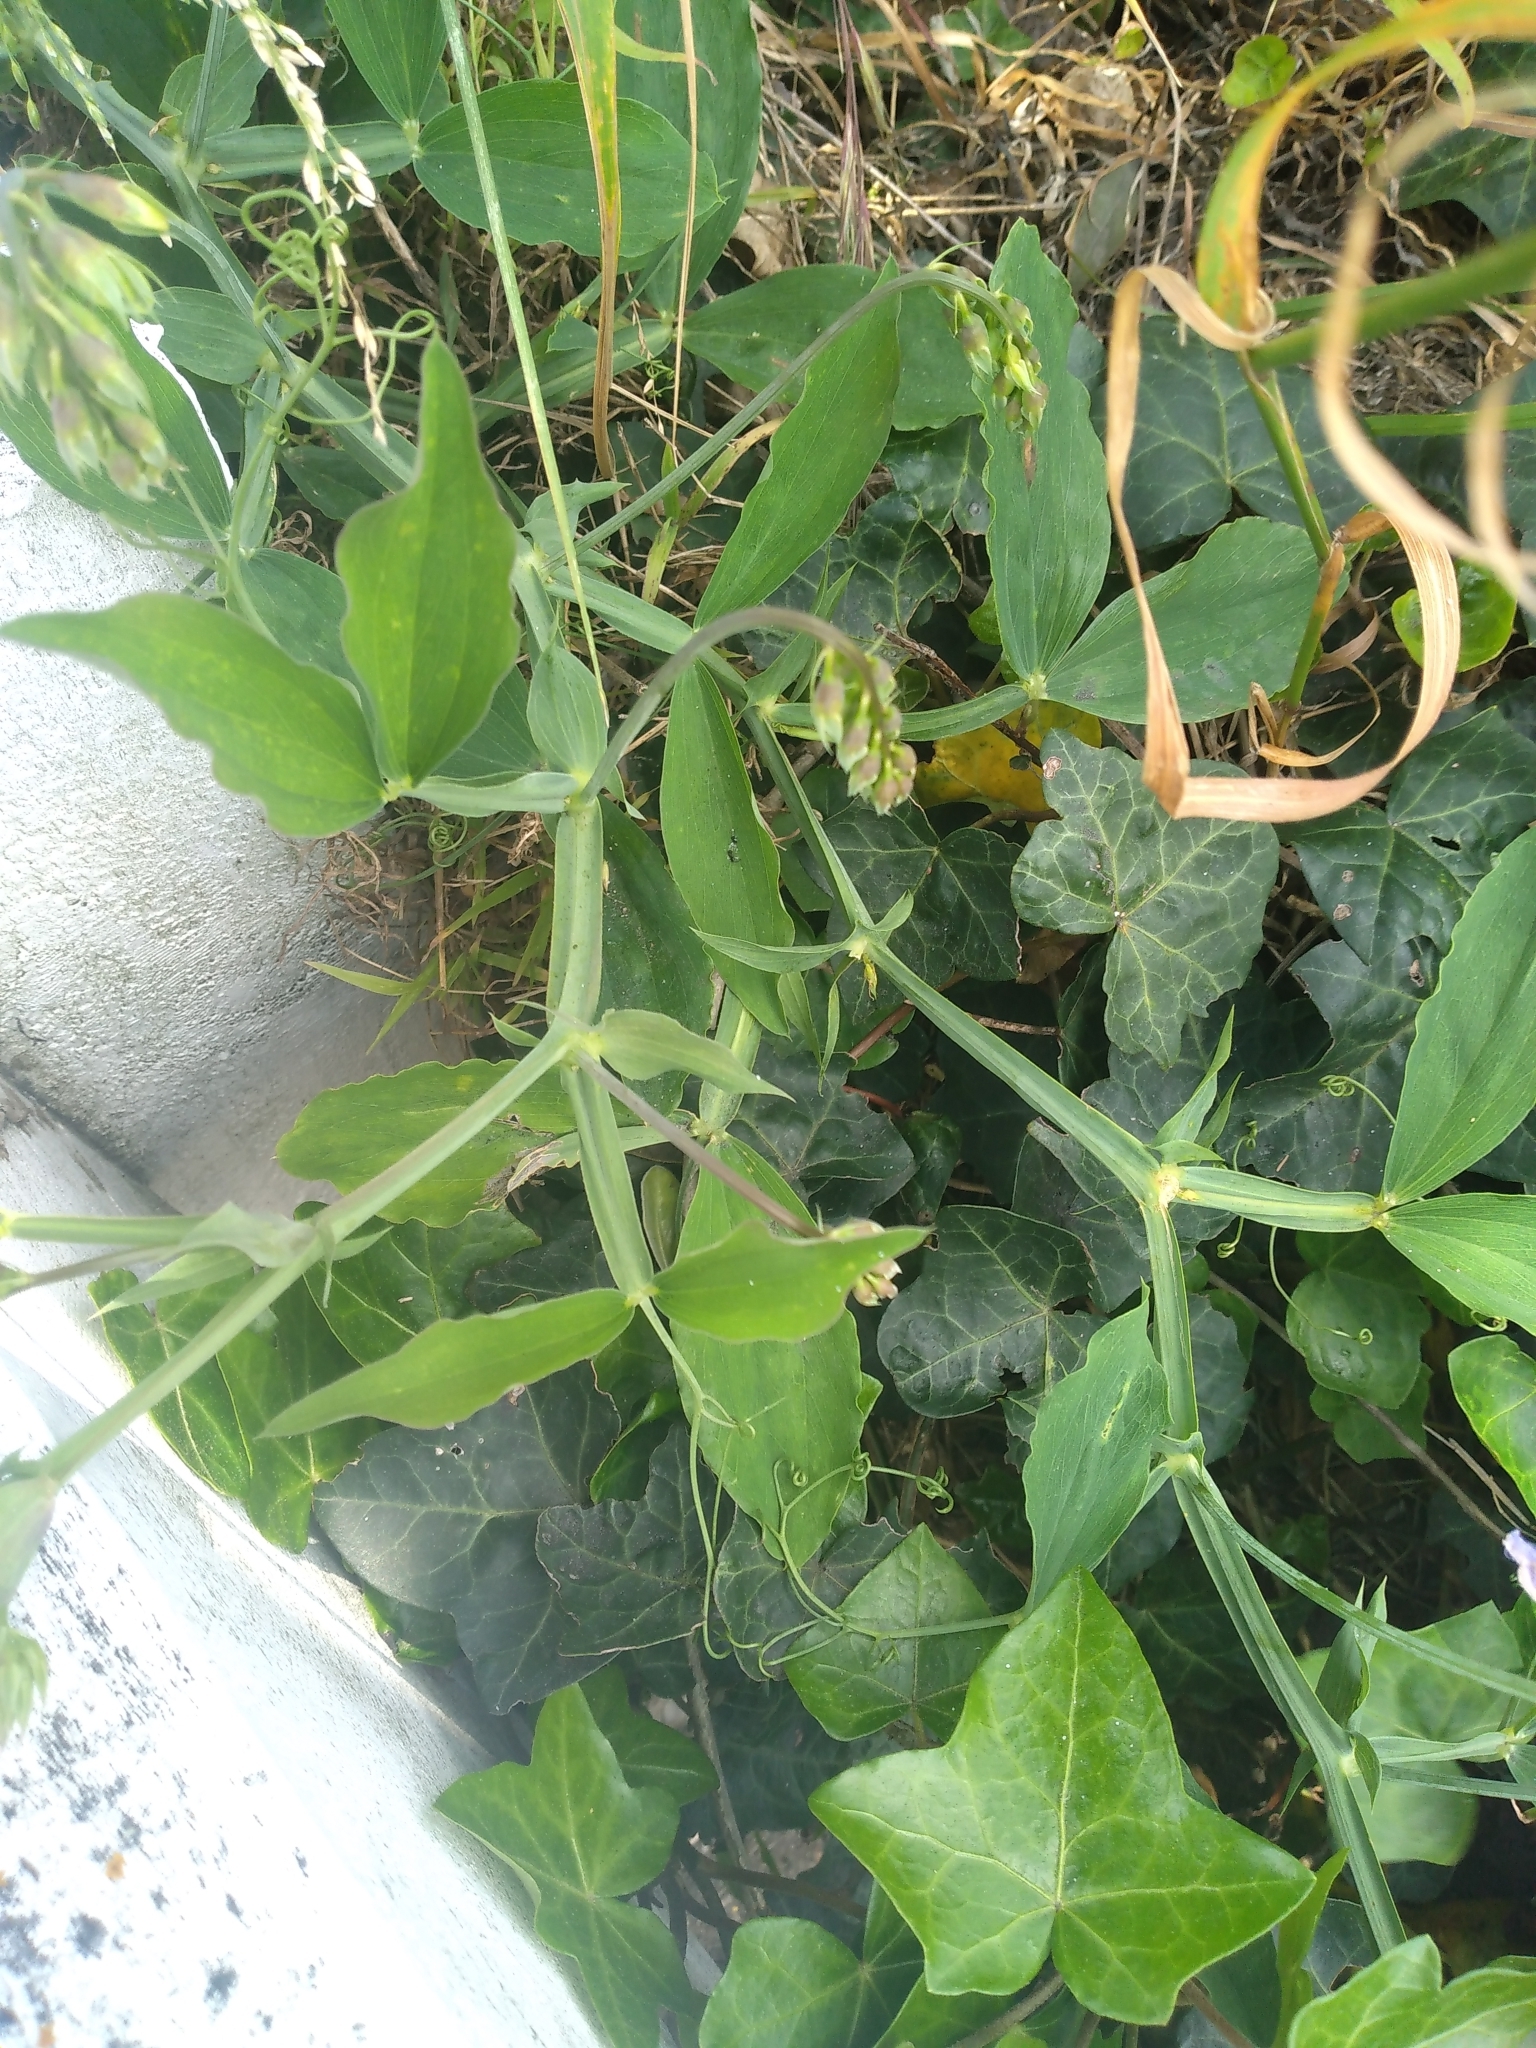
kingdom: Plantae
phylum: Tracheophyta
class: Magnoliopsida
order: Fabales
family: Fabaceae
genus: Lathyrus
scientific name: Lathyrus latifolius
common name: Perennial pea
